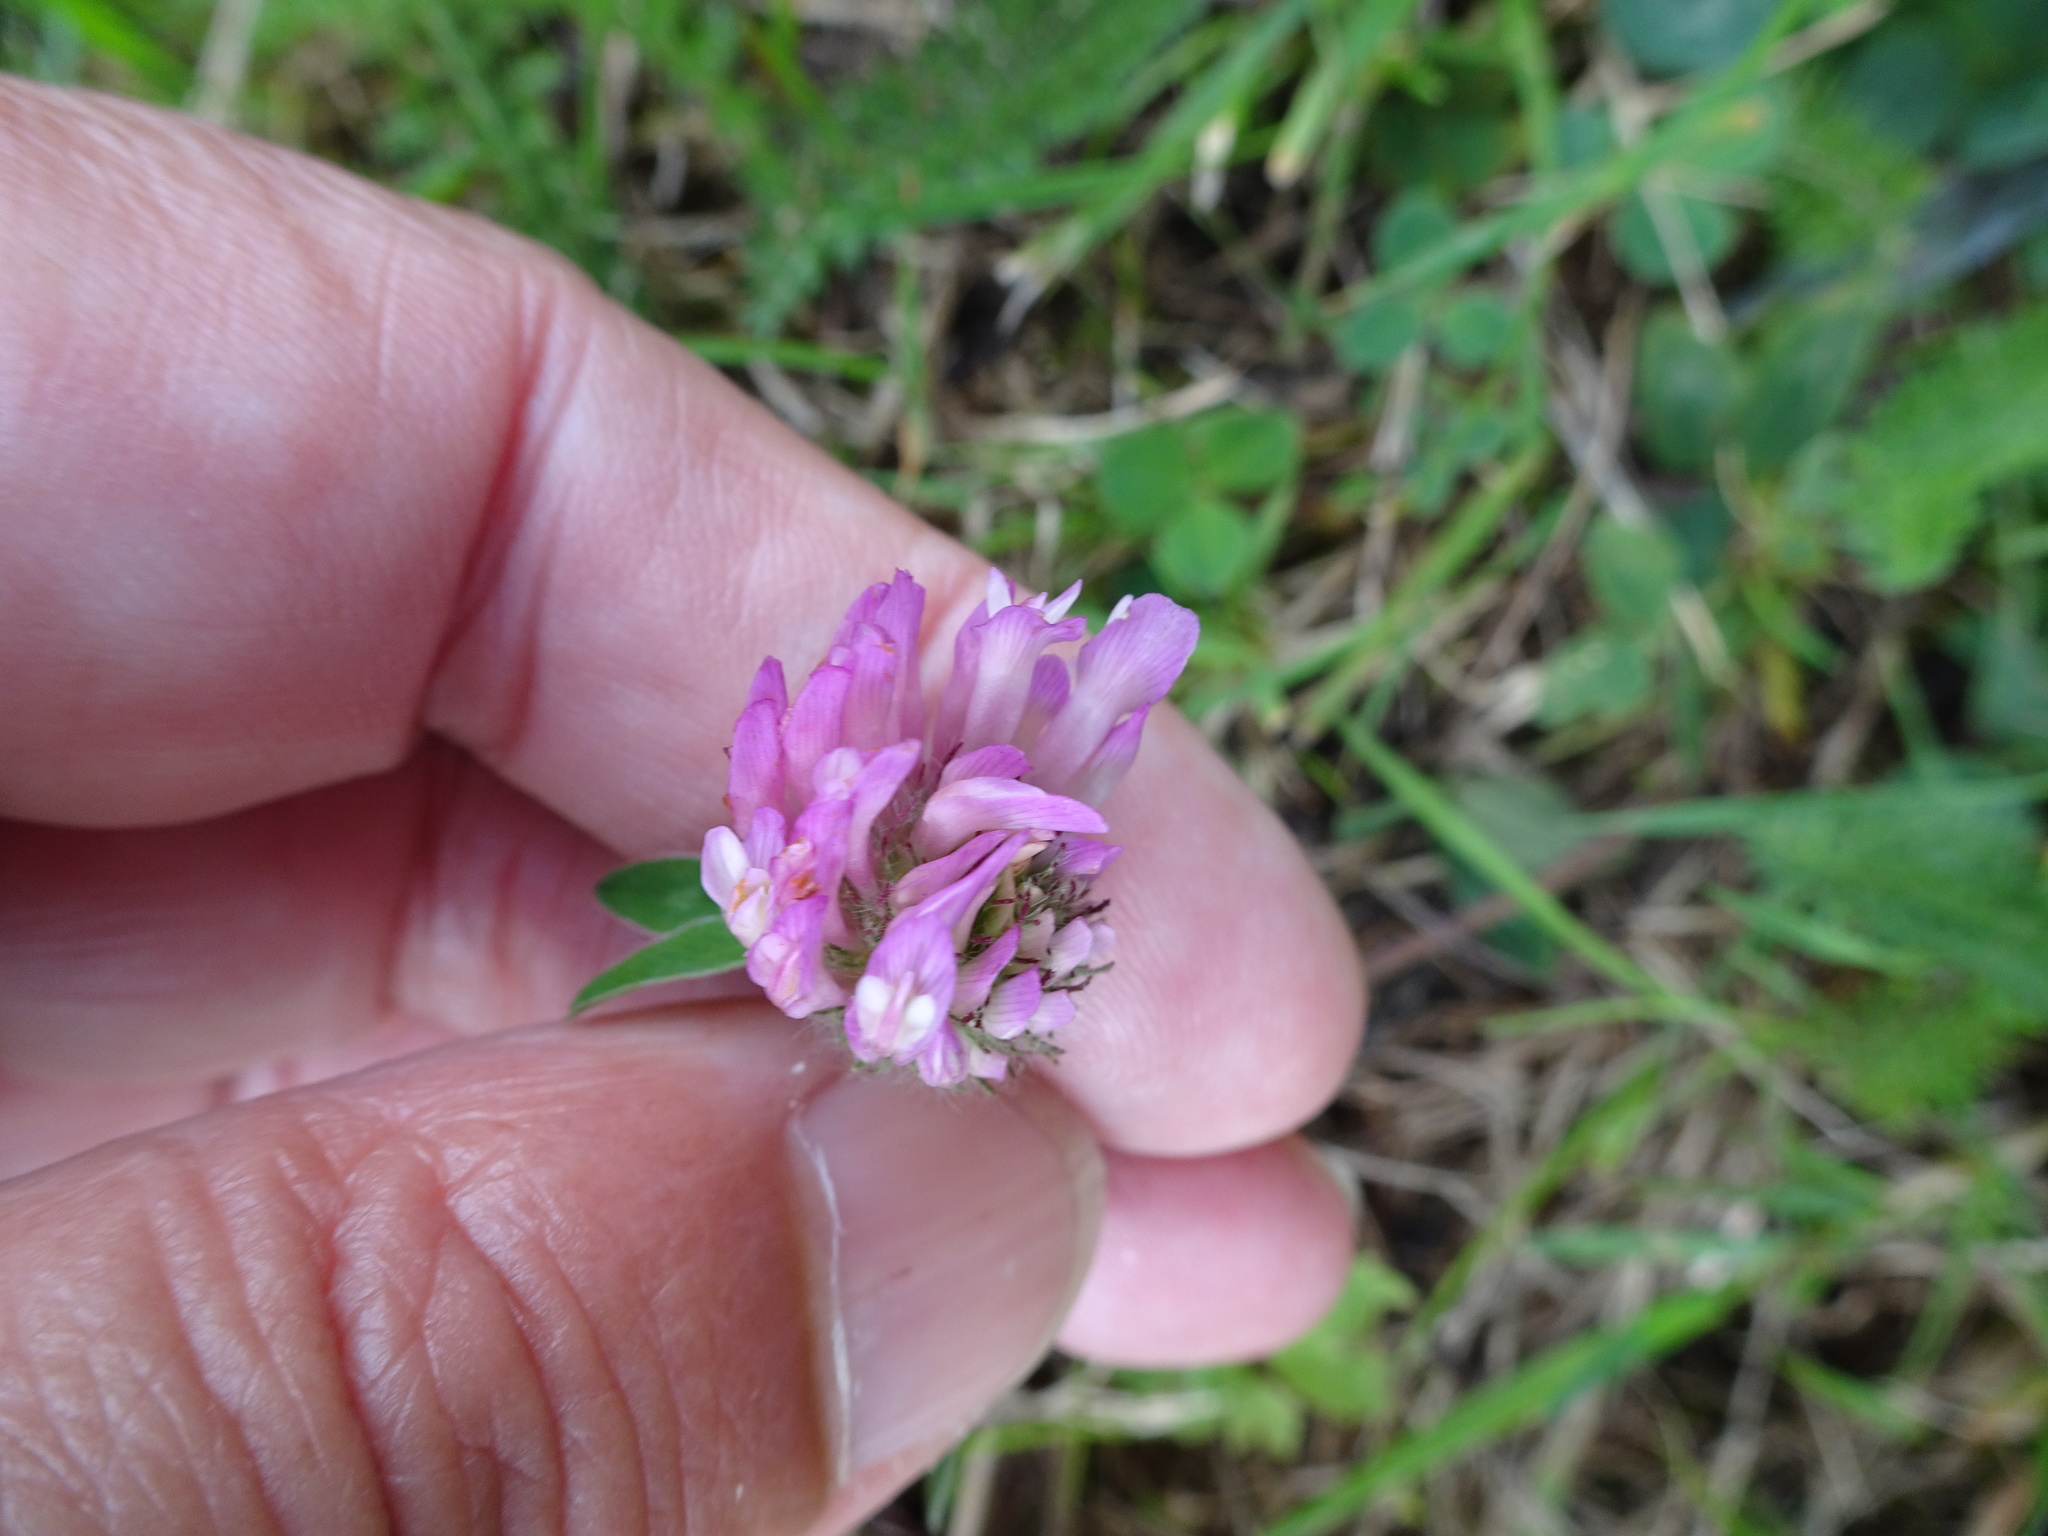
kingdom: Plantae
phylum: Tracheophyta
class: Magnoliopsida
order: Fabales
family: Fabaceae
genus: Trifolium
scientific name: Trifolium pratense
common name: Red clover
